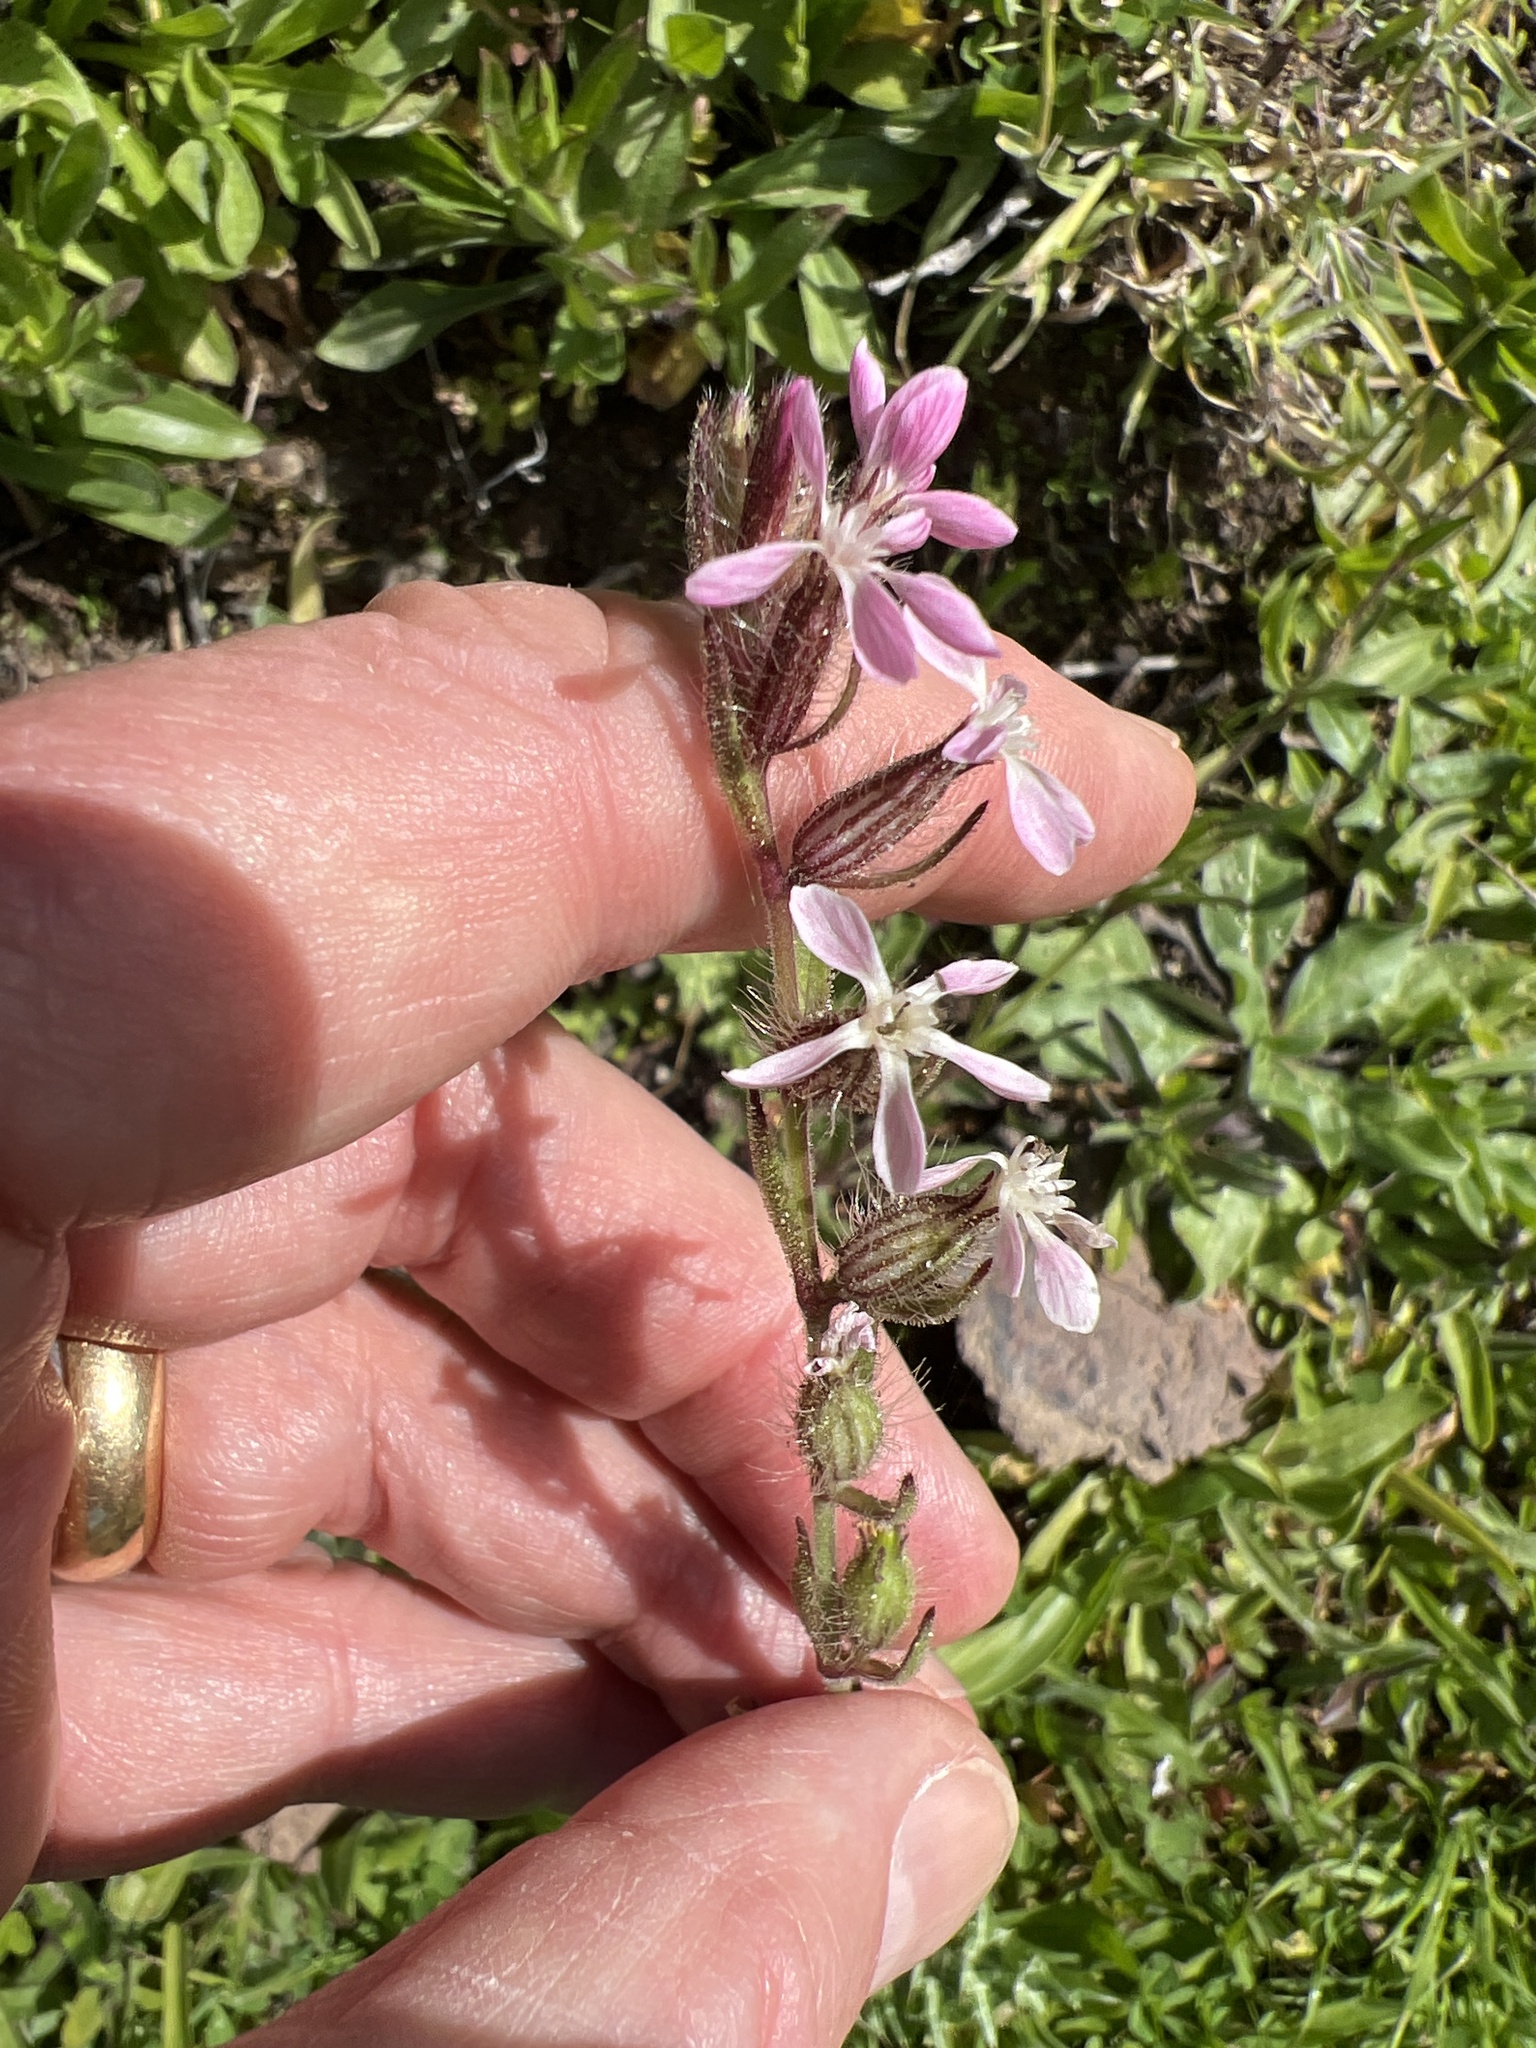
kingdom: Plantae
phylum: Tracheophyta
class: Magnoliopsida
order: Caryophyllales
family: Caryophyllaceae
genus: Silene
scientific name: Silene gallica
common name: Small-flowered catchfly
